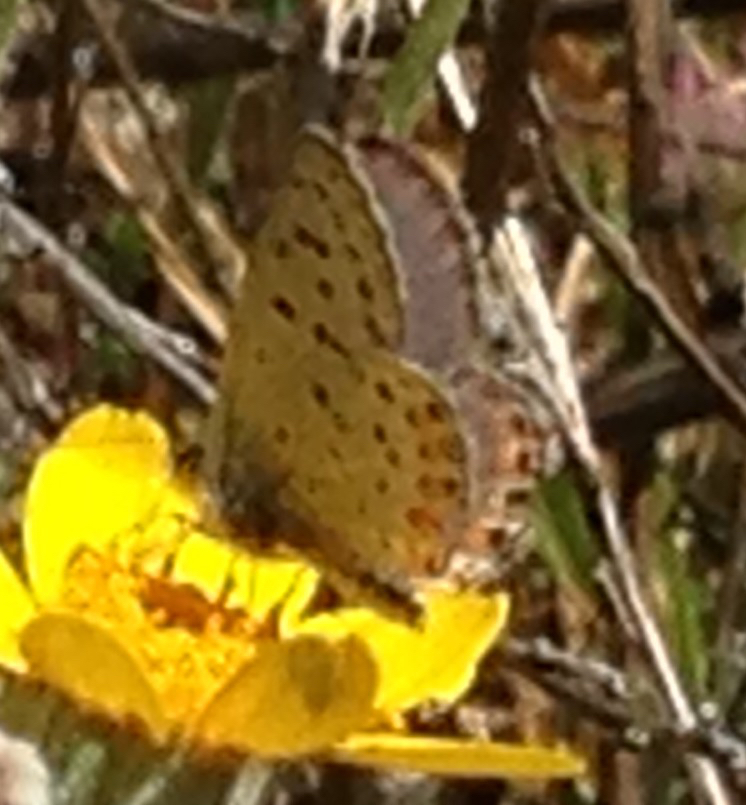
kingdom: Animalia
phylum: Arthropoda
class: Insecta
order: Lepidoptera
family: Lycaenidae
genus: Icaricia
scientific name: Icaricia acmon
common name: Acmon blue
